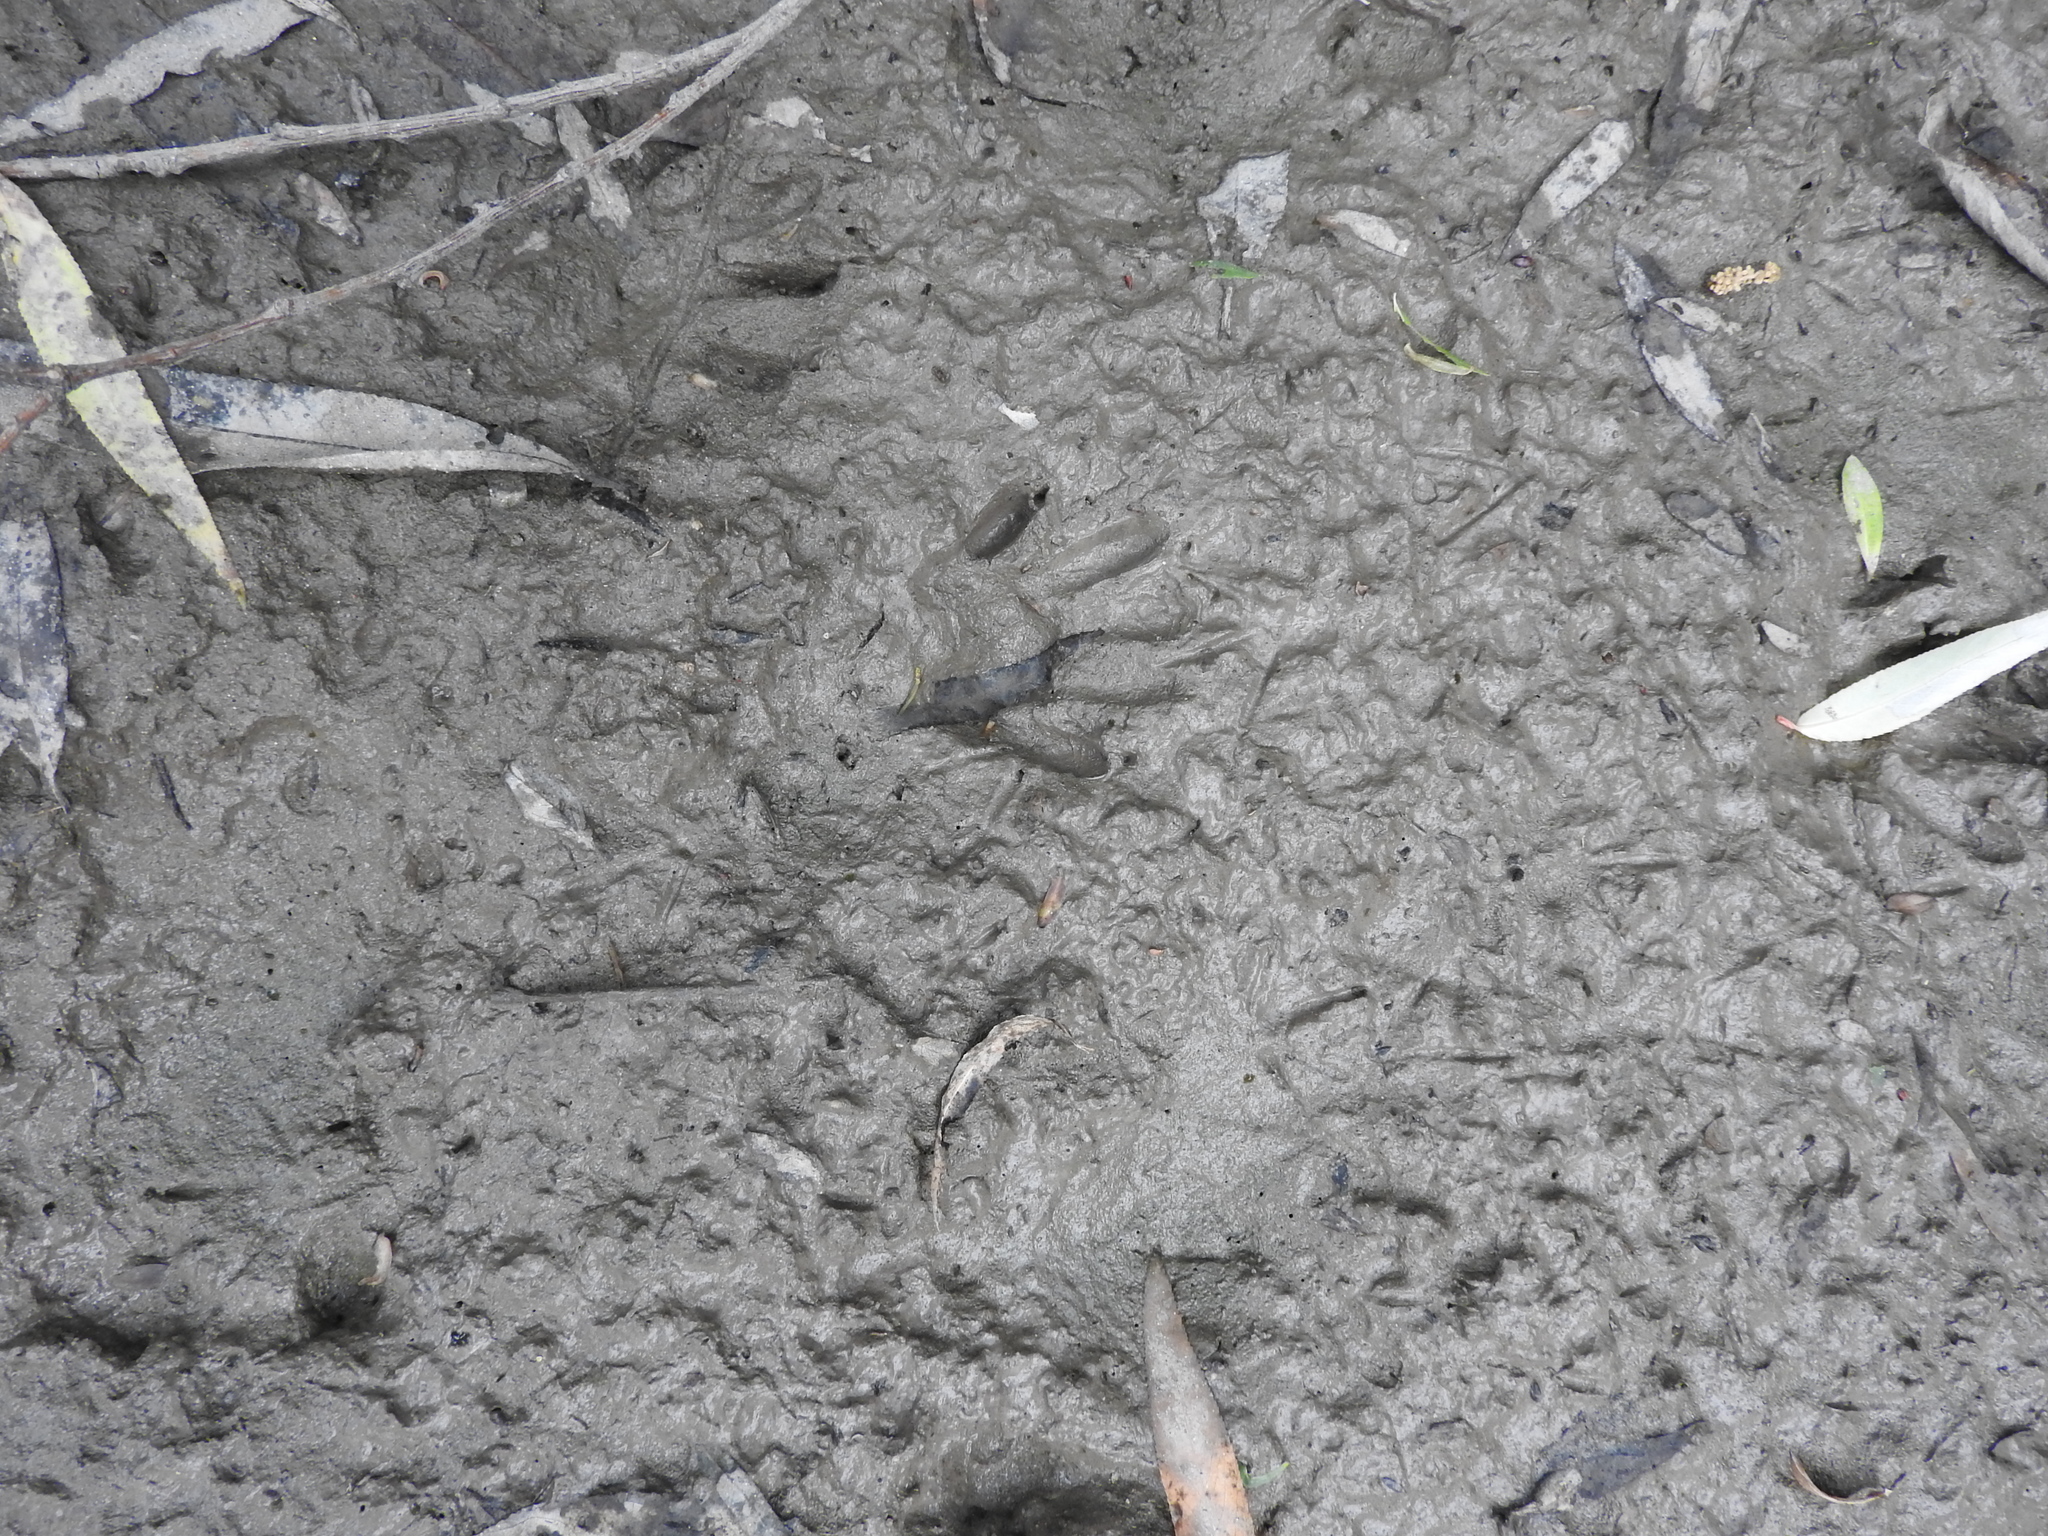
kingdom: Animalia
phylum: Chordata
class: Mammalia
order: Carnivora
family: Procyonidae
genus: Procyon
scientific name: Procyon lotor
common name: Raccoon
